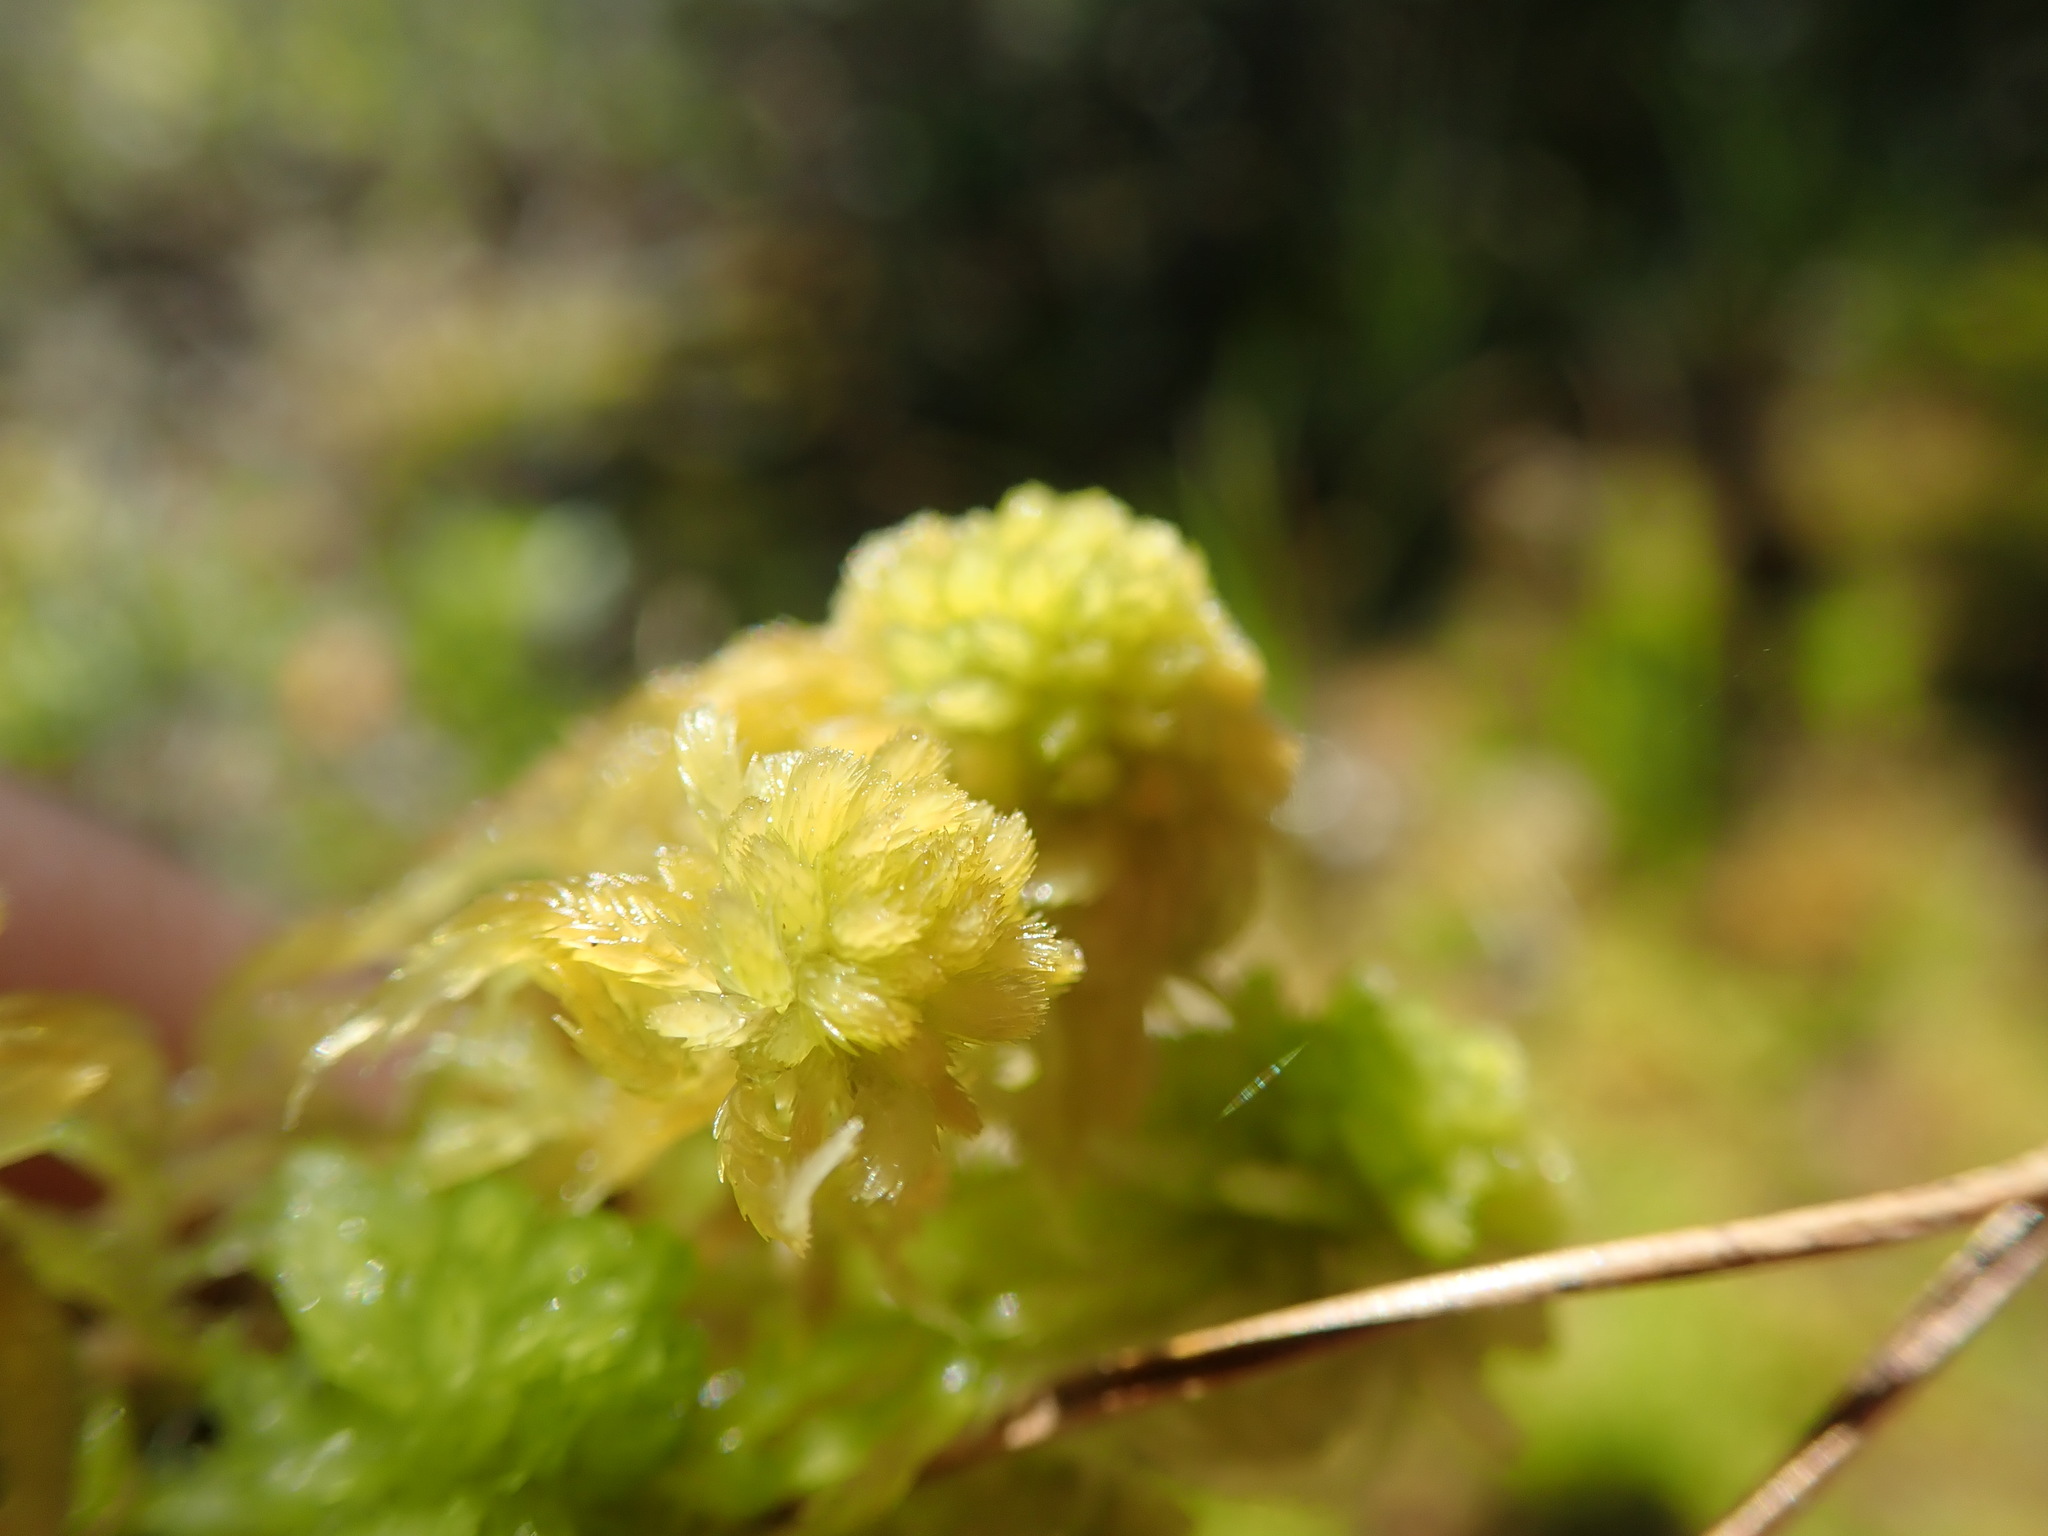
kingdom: Plantae
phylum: Bryophyta
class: Sphagnopsida
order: Sphagnales
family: Sphagnaceae
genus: Sphagnum
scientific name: Sphagnum mendocinum
